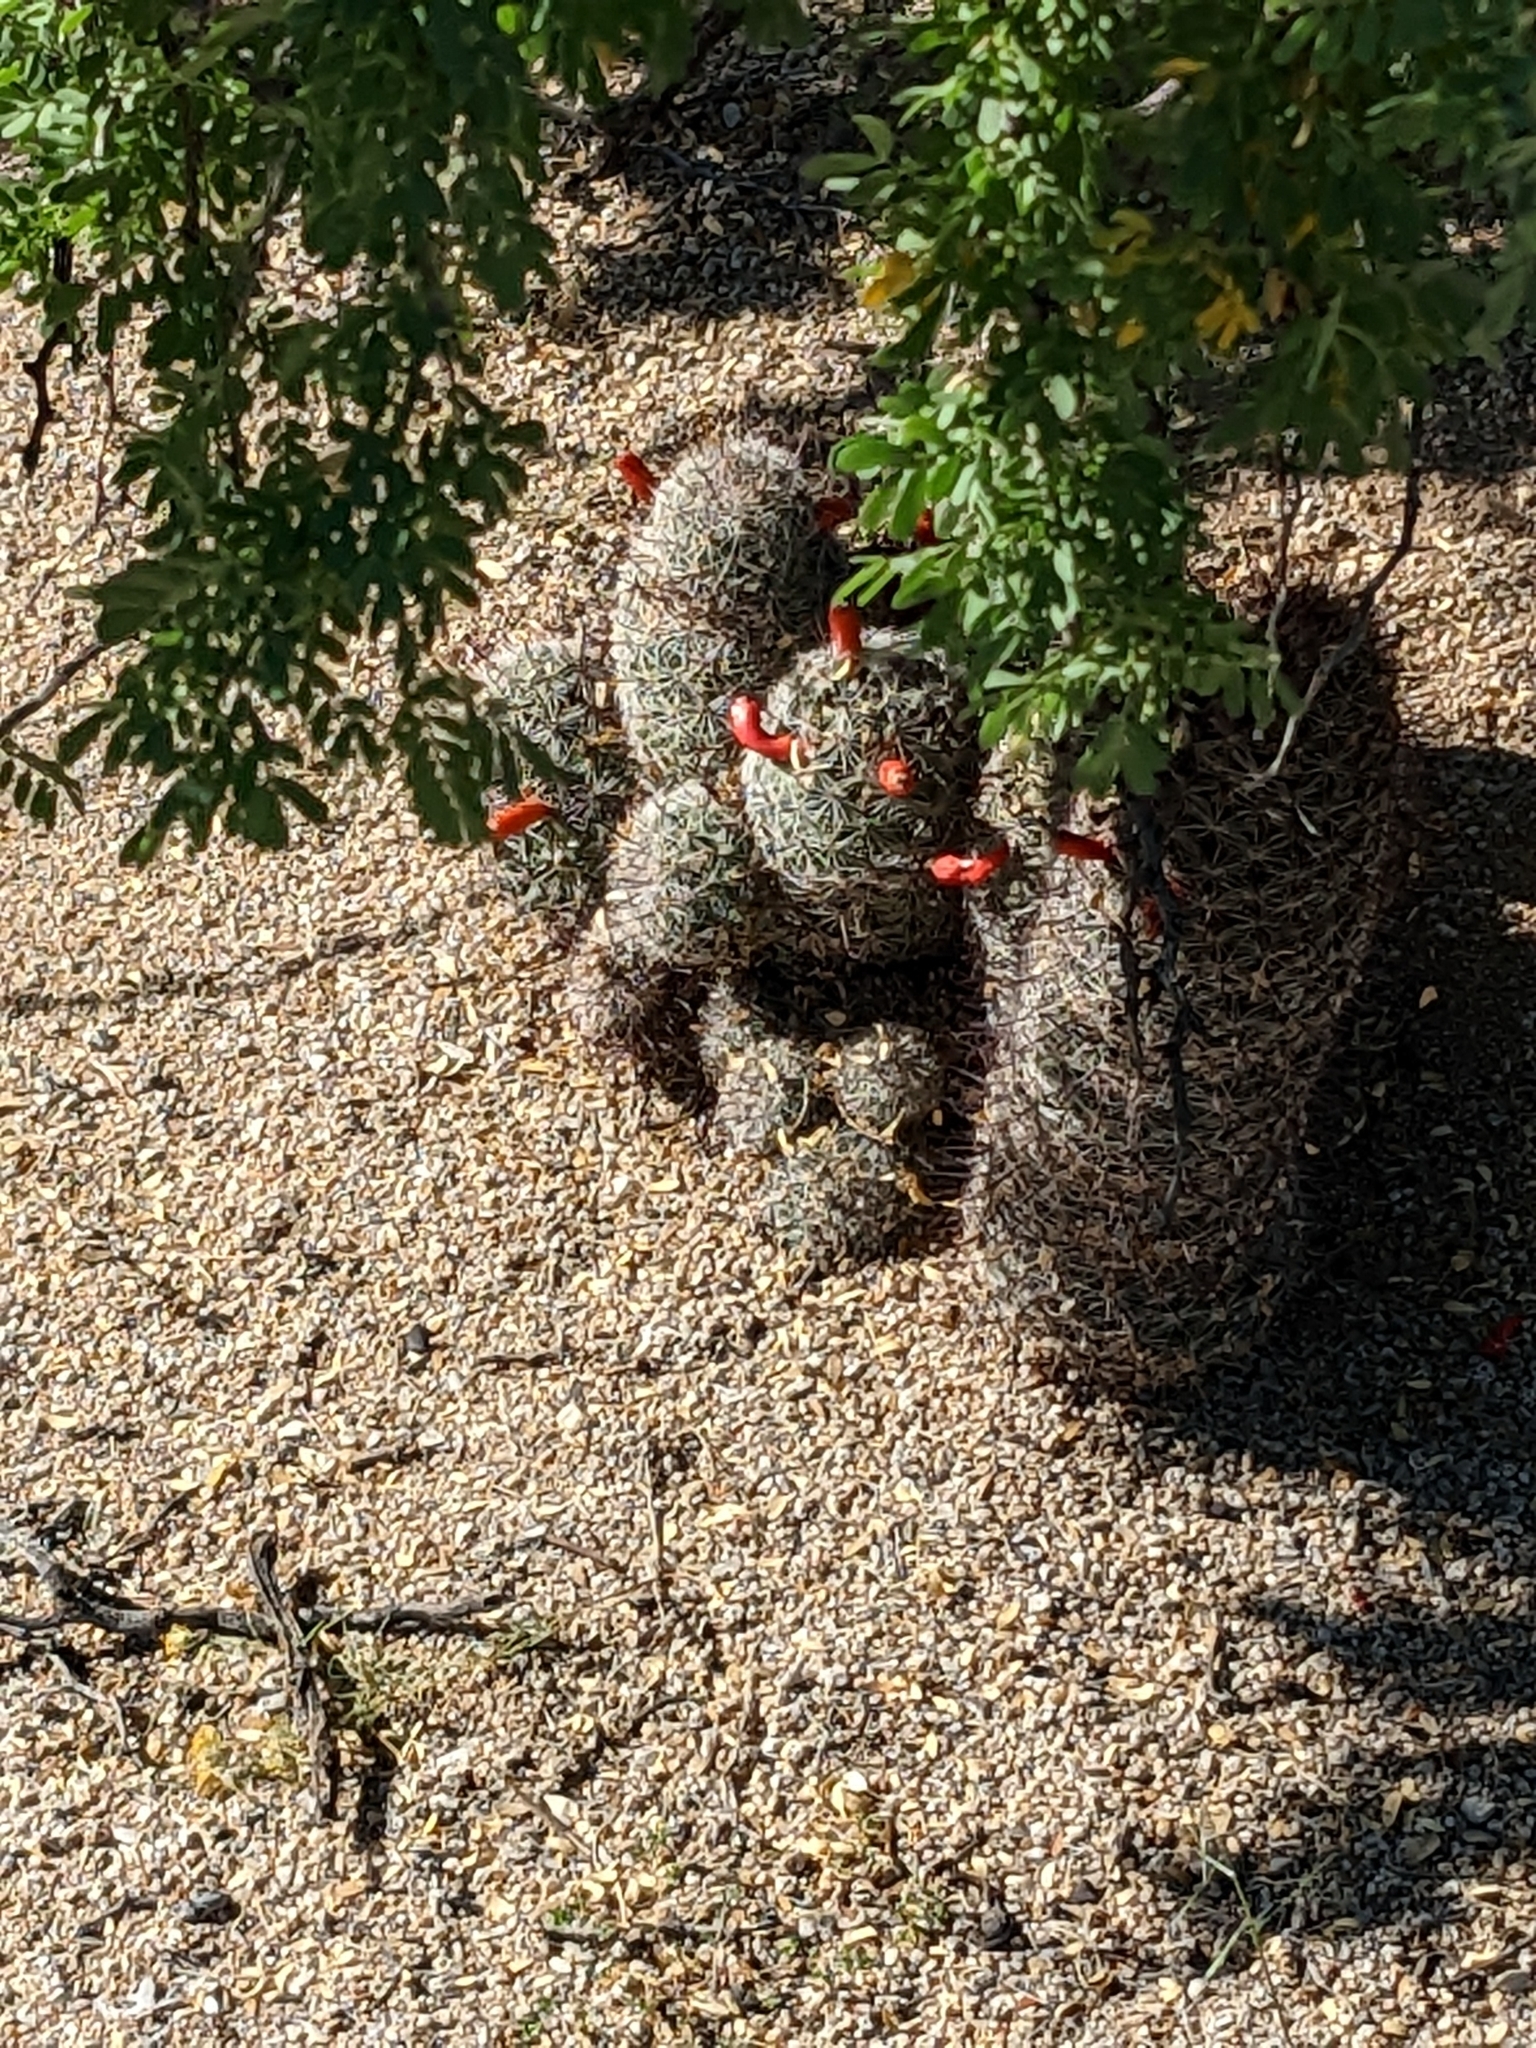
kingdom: Plantae
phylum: Tracheophyta
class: Magnoliopsida
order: Caryophyllales
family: Cactaceae
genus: Cochemiea
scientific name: Cochemiea grahamii
